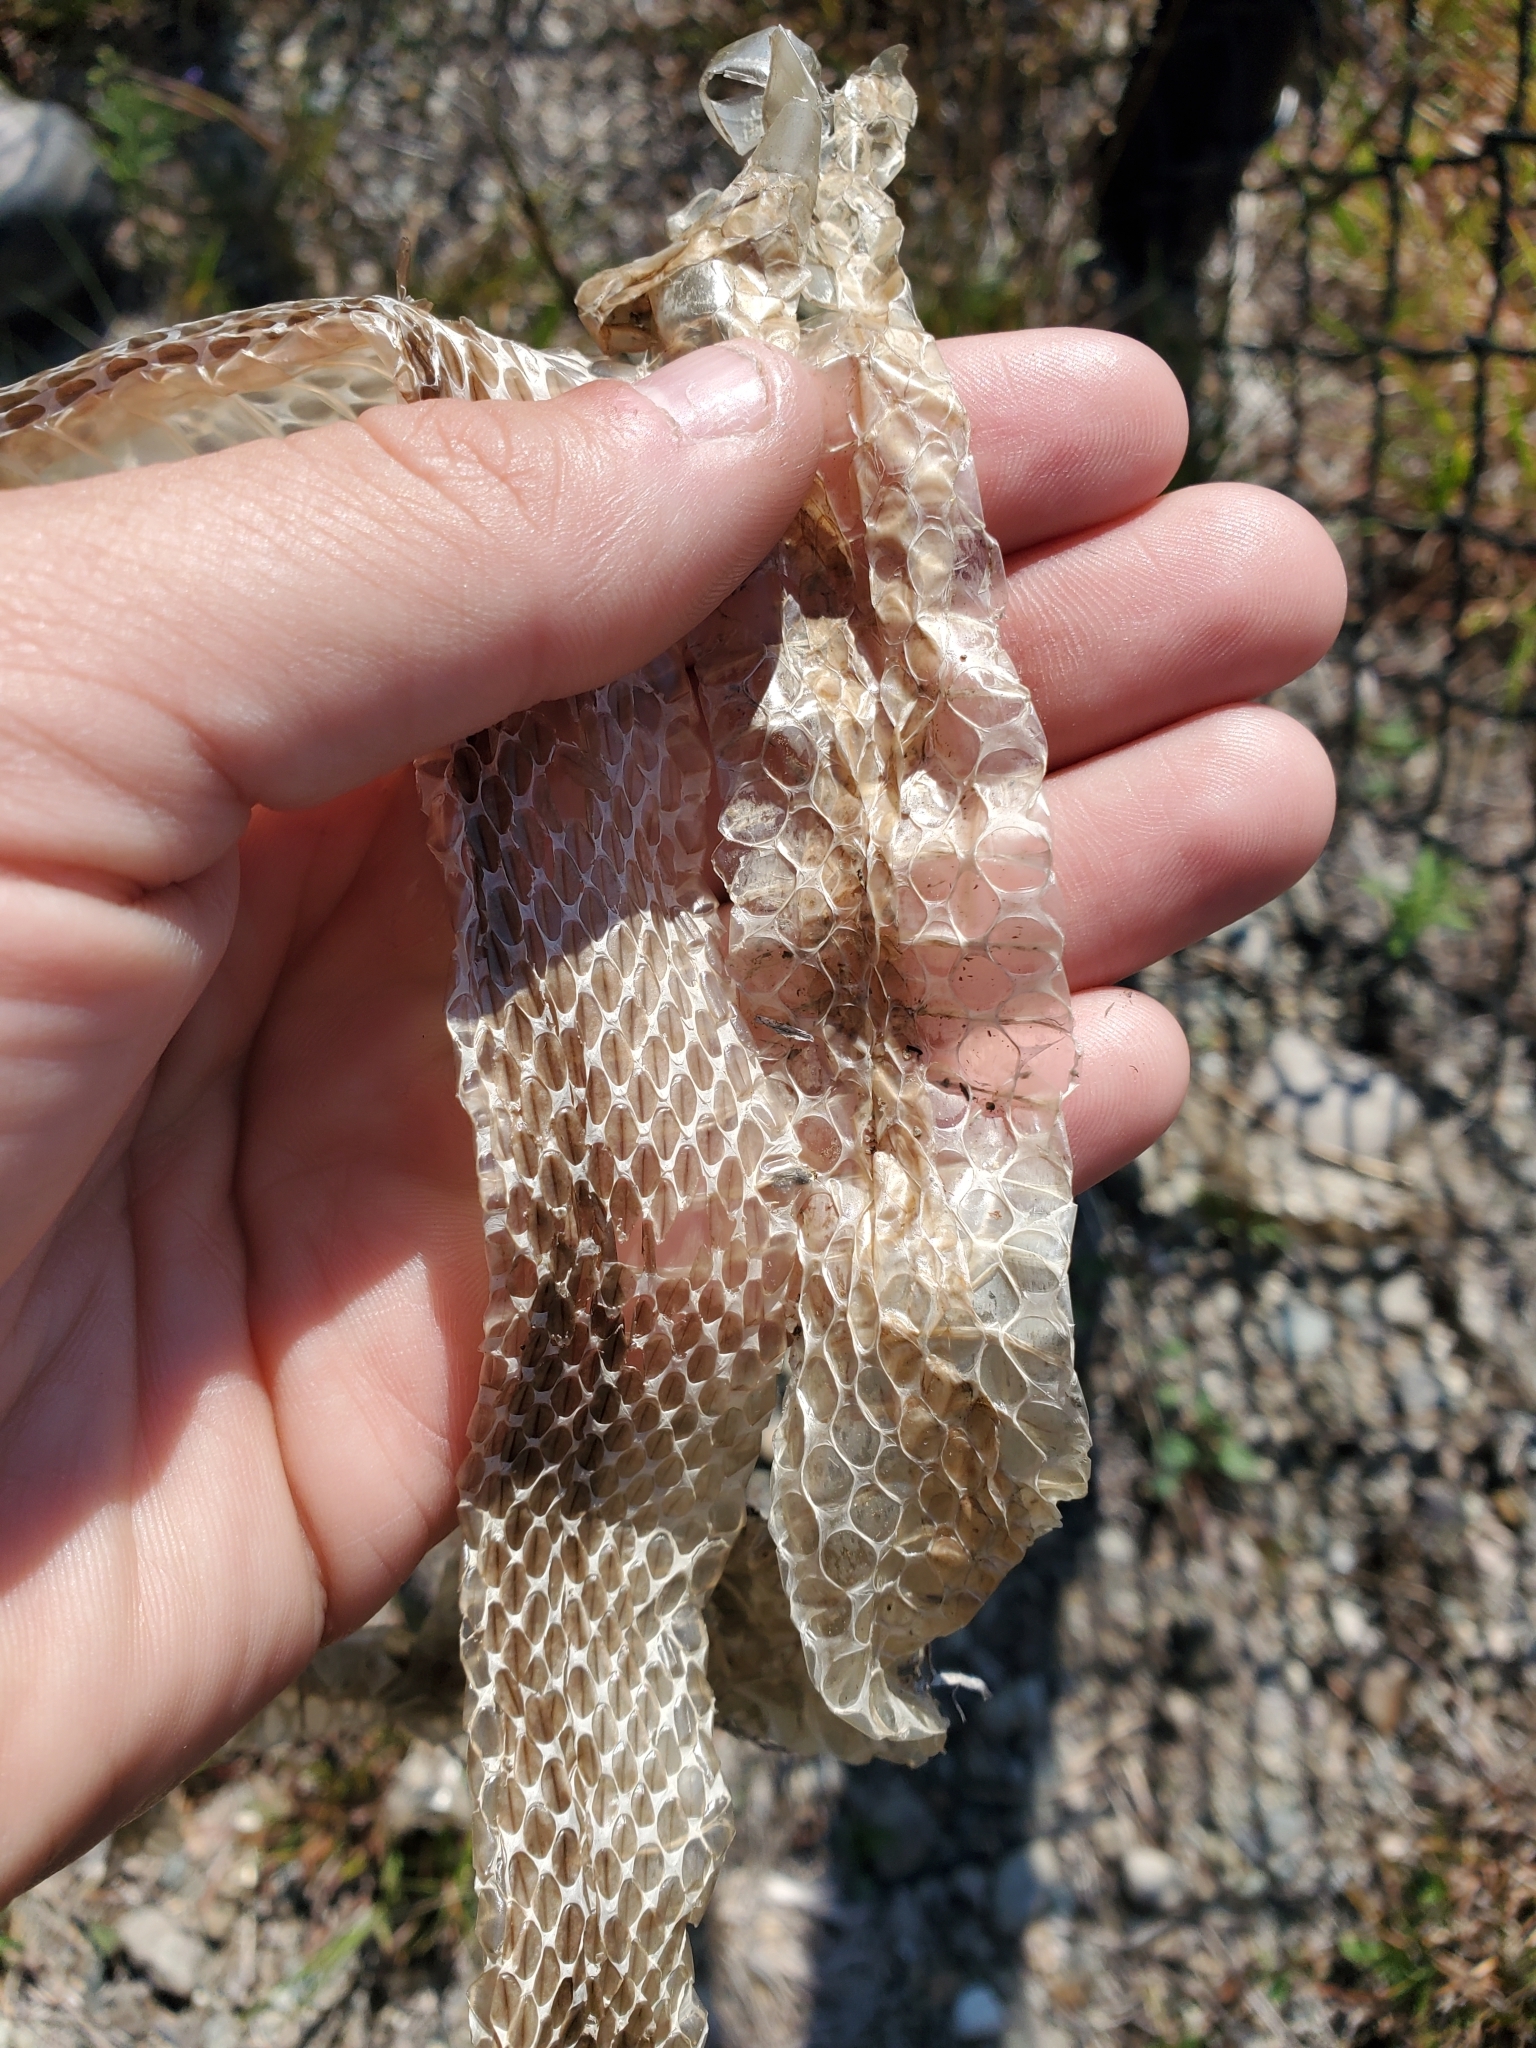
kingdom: Animalia
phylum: Chordata
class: Squamata
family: Colubridae
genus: Nerodia
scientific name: Nerodia sipedon
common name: Northern water snake
